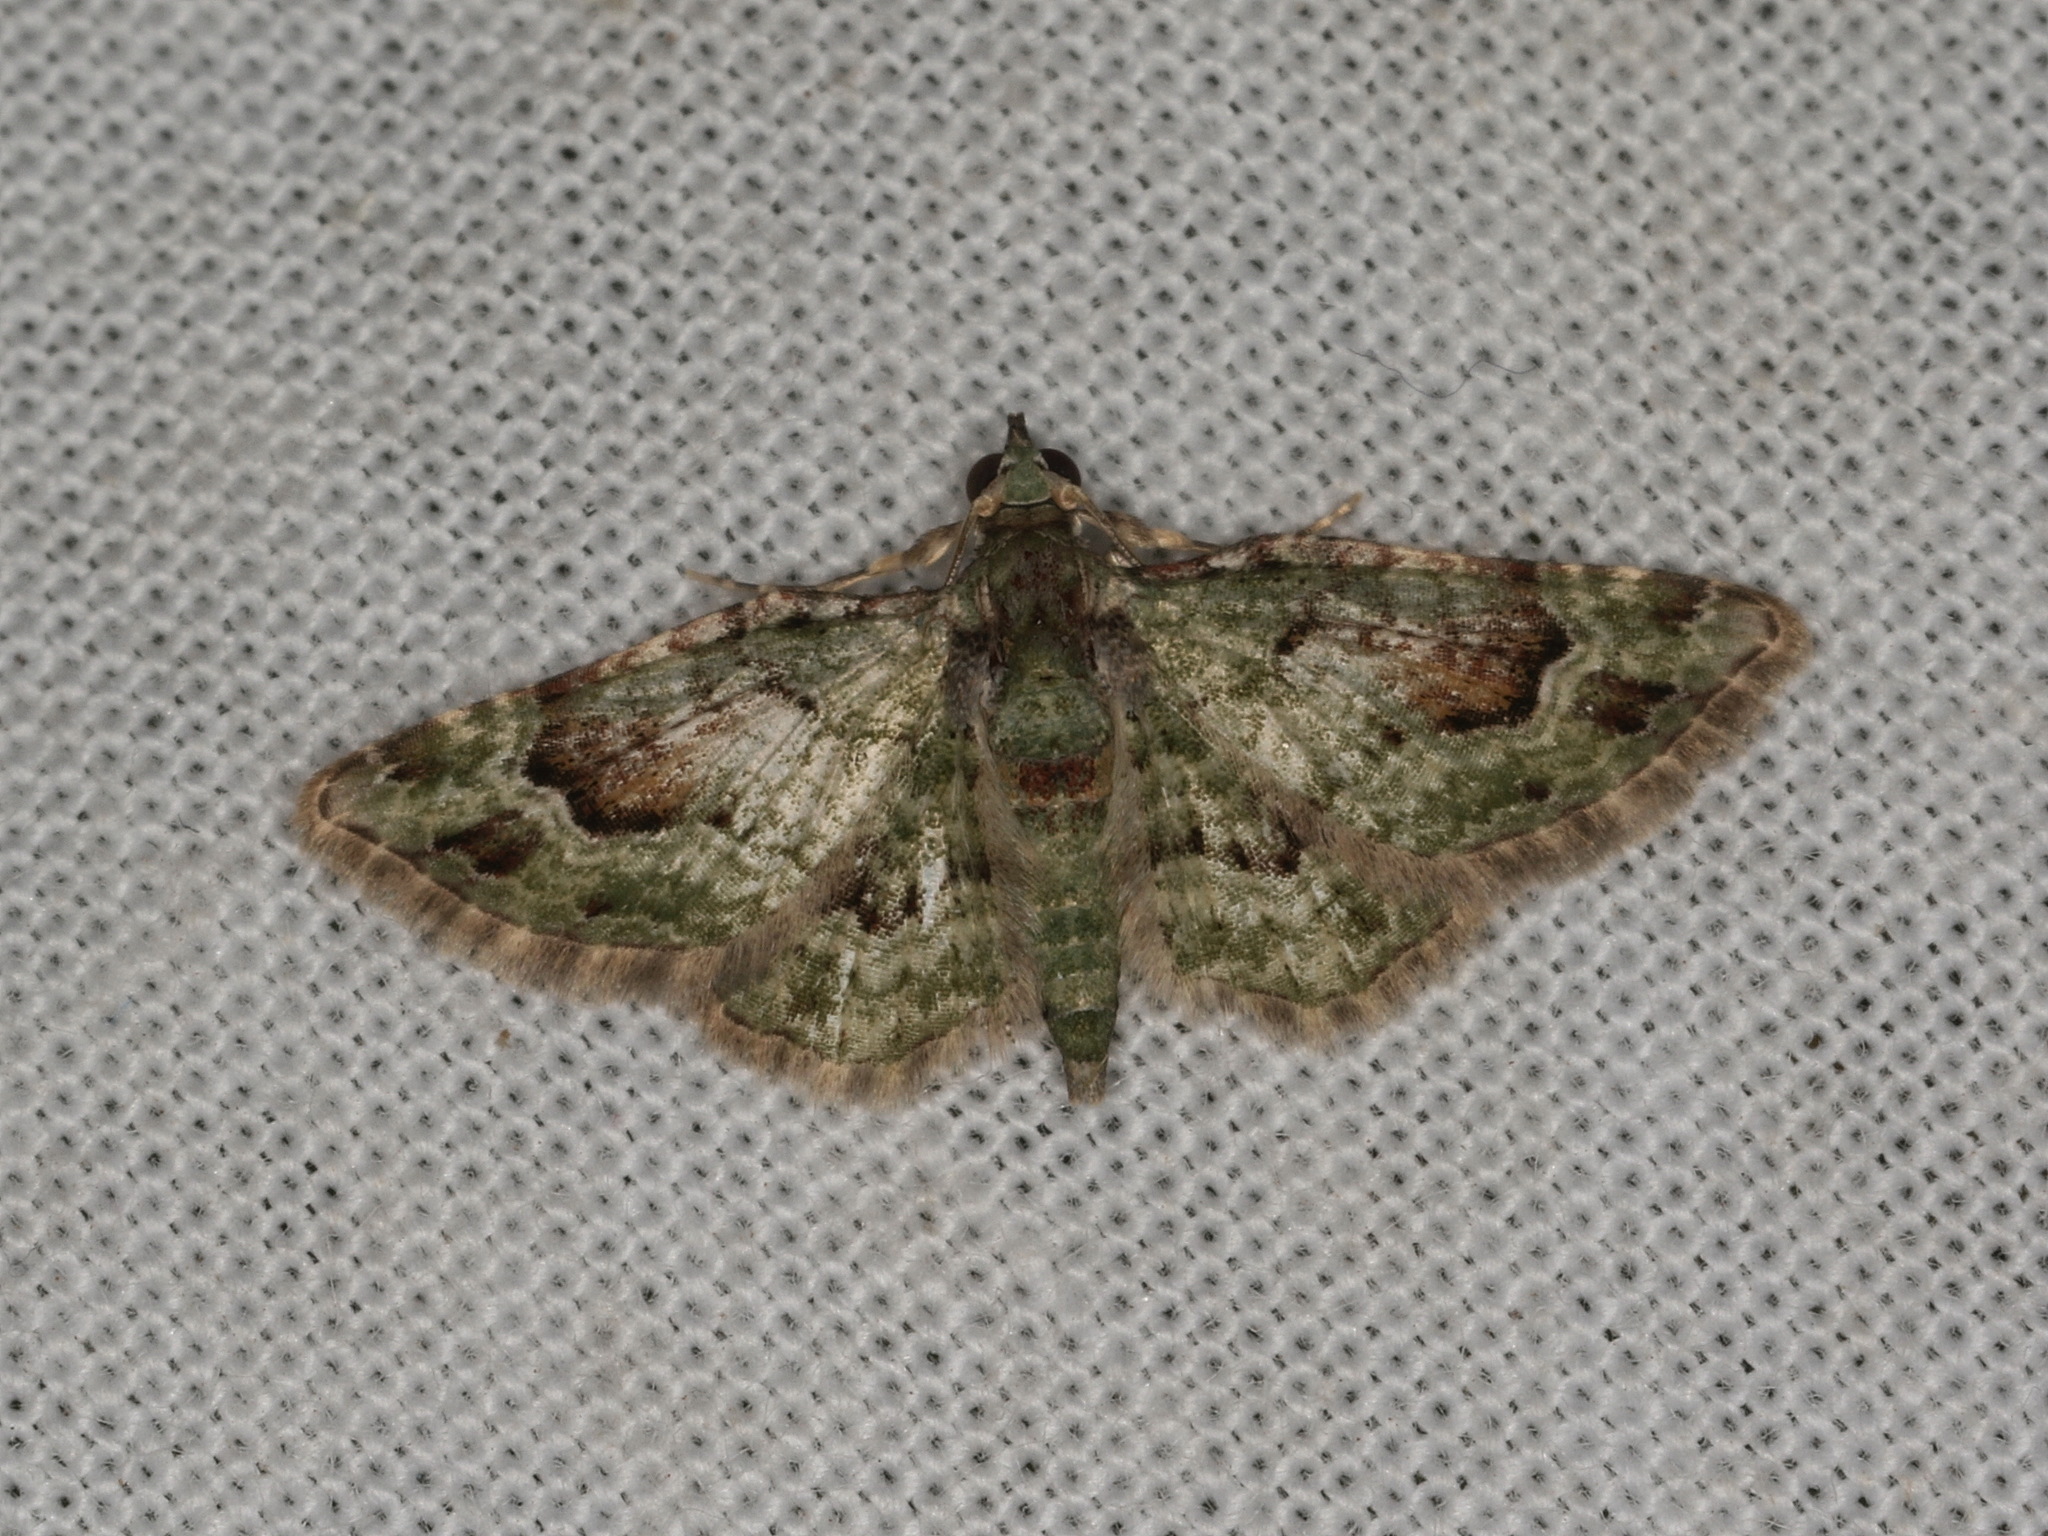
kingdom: Animalia
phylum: Arthropoda
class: Insecta
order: Lepidoptera
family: Geometridae
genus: Calluga
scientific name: Calluga costalis
